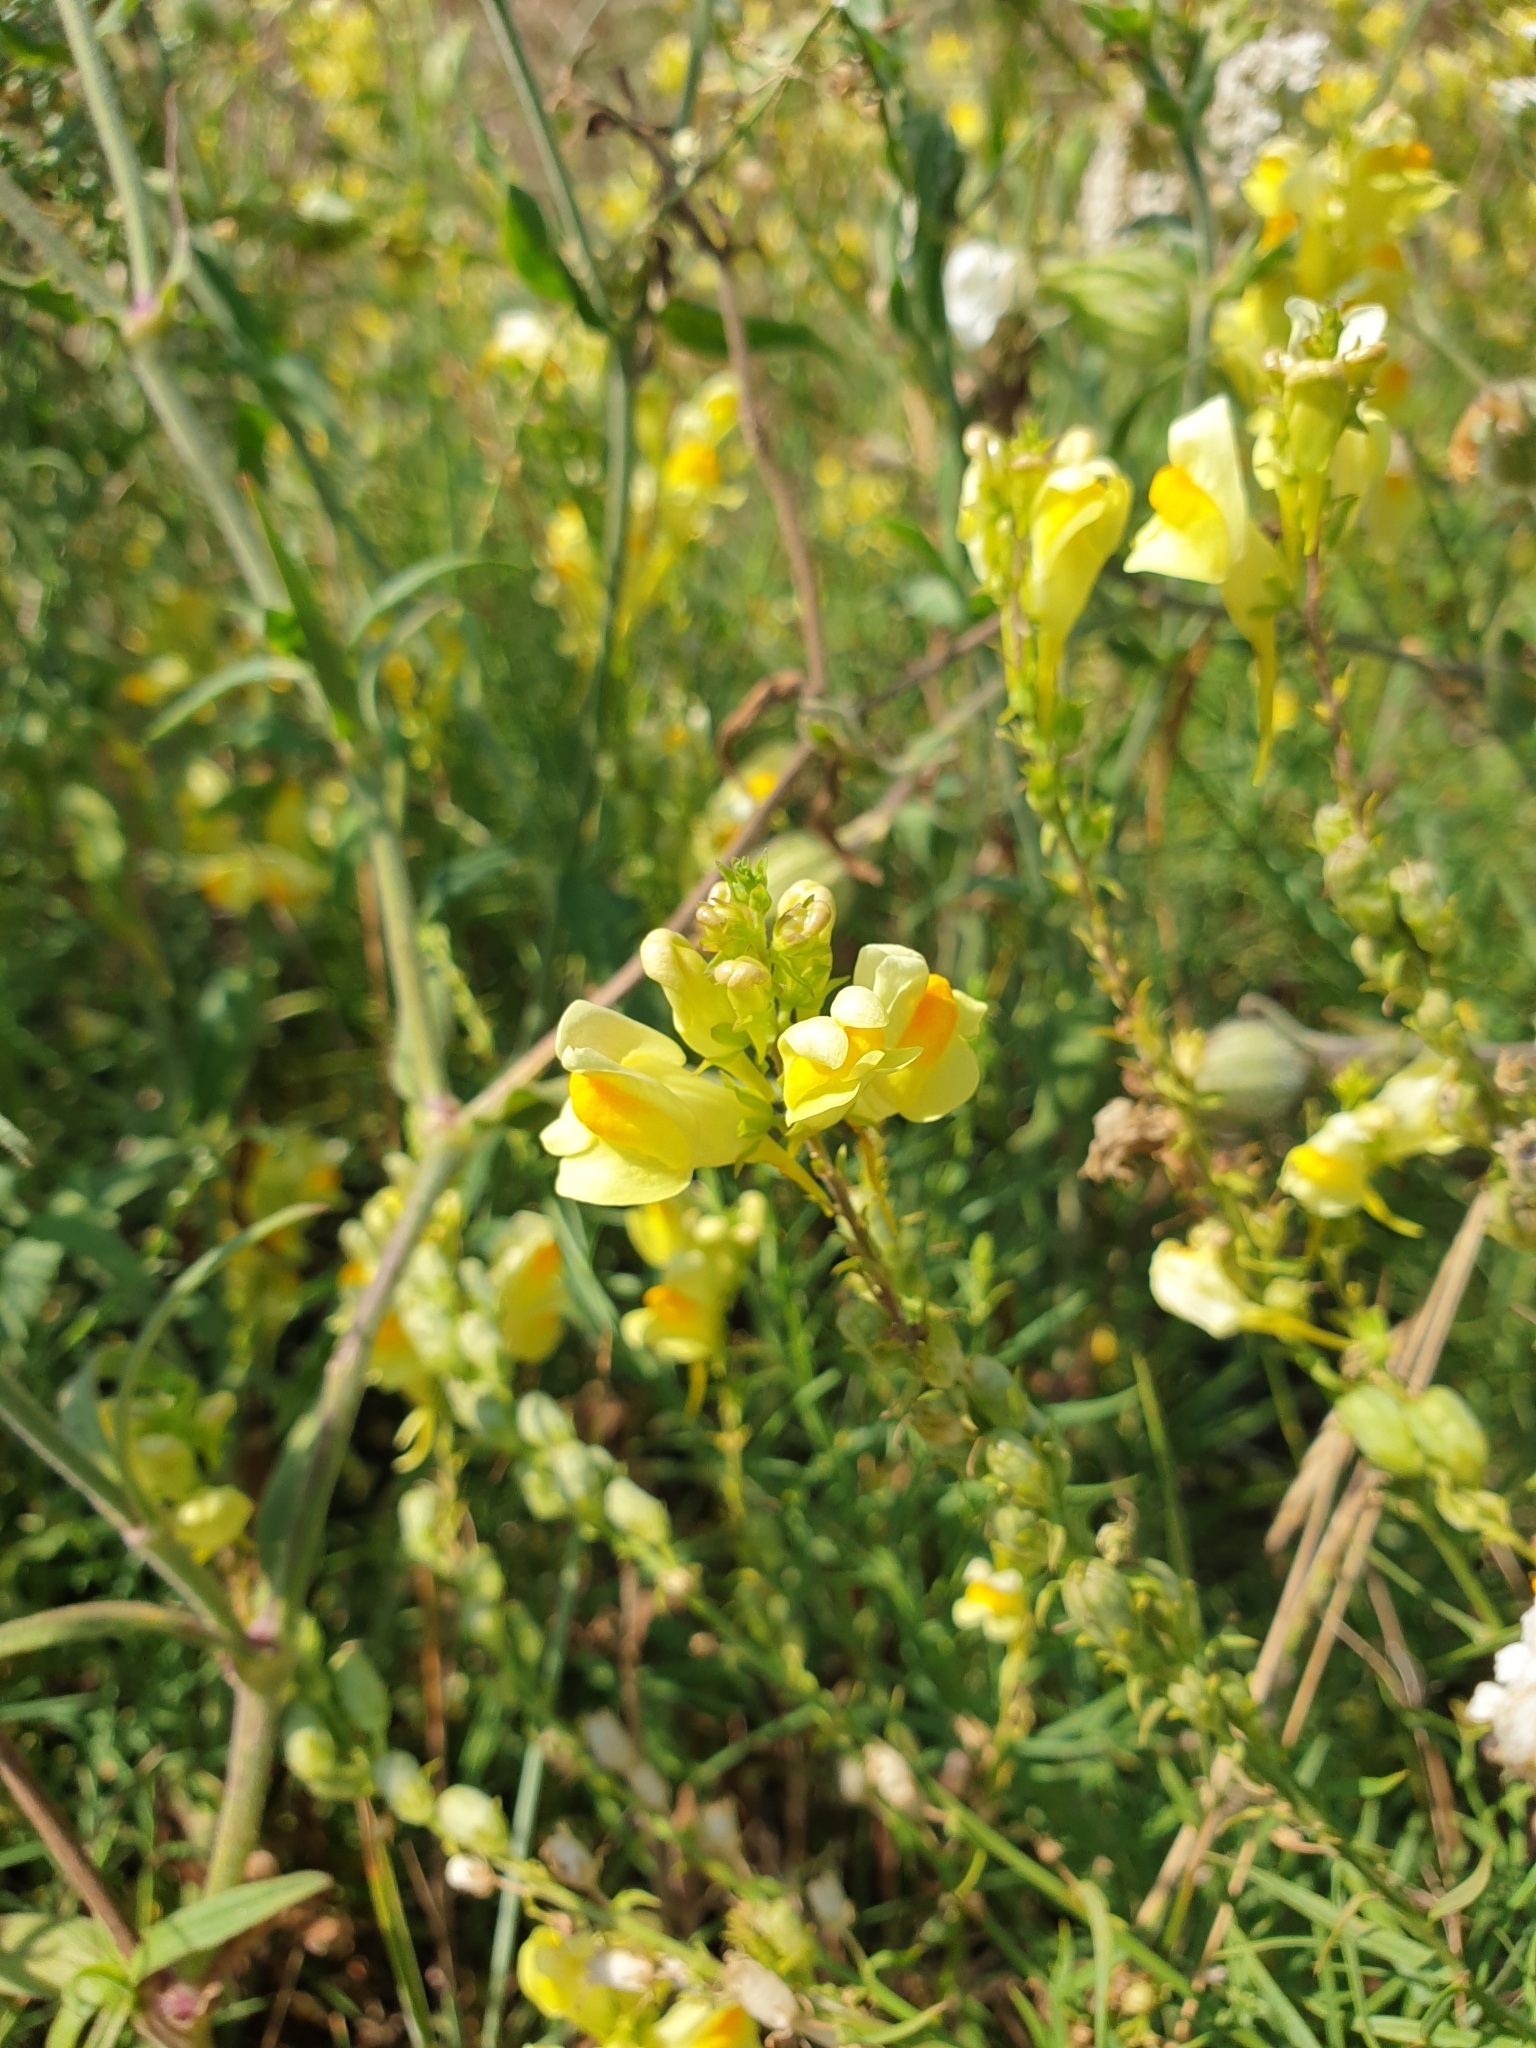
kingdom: Plantae
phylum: Tracheophyta
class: Magnoliopsida
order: Lamiales
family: Plantaginaceae
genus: Linaria
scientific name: Linaria vulgaris
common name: Butter and eggs
